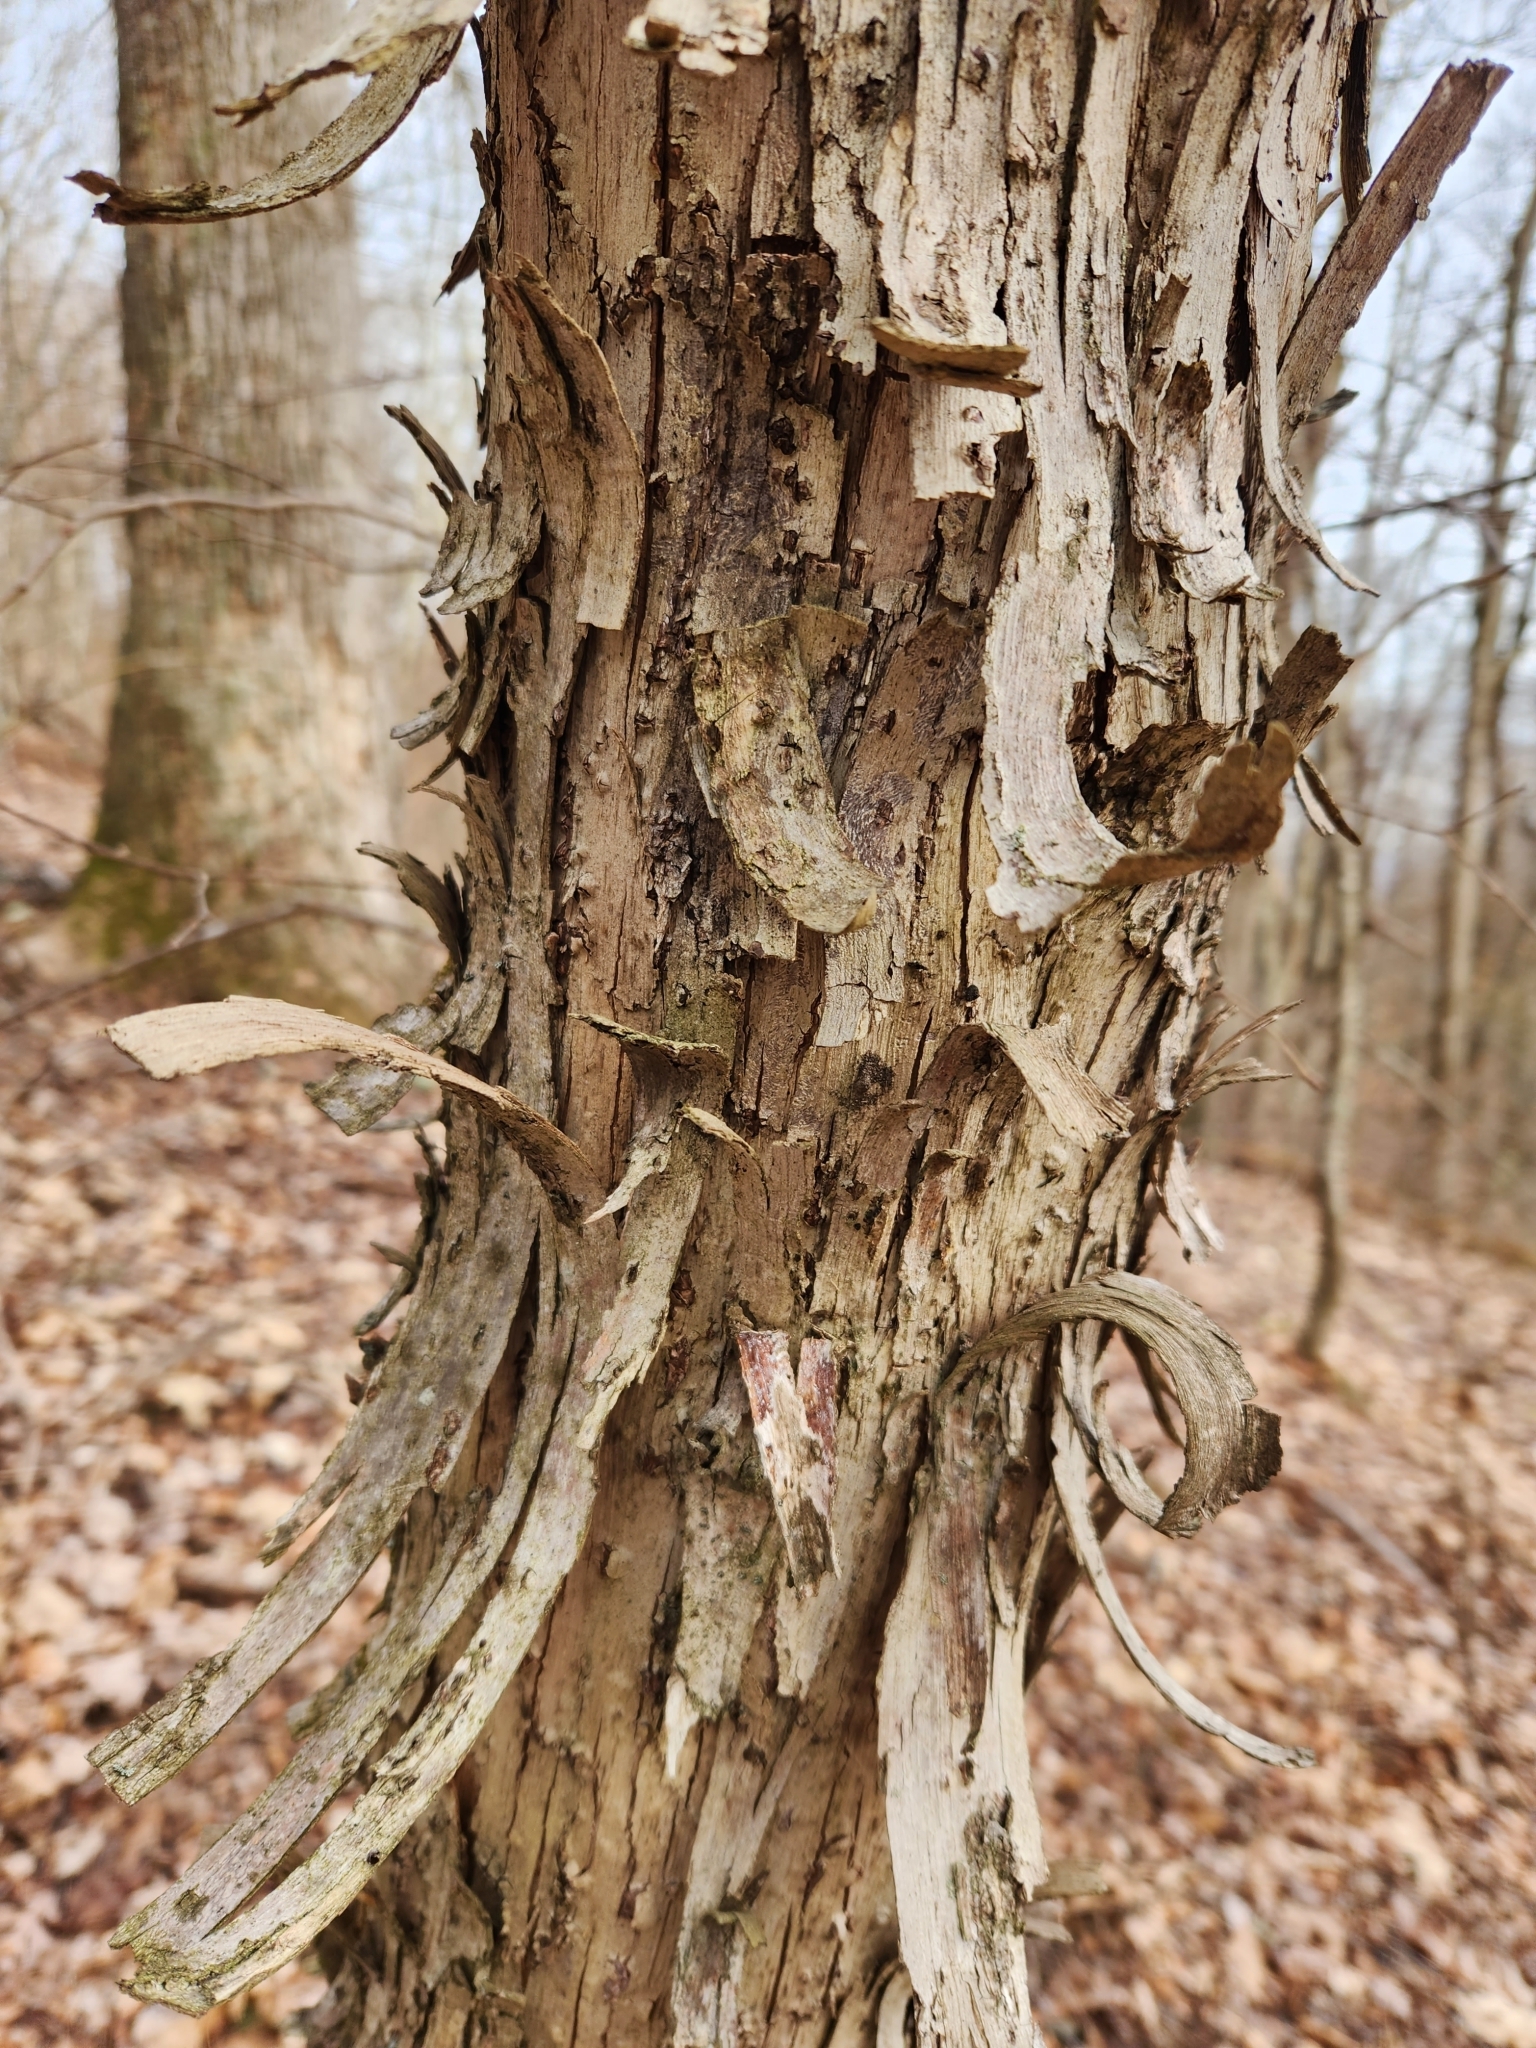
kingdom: Plantae
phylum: Tracheophyta
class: Magnoliopsida
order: Fagales
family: Betulaceae
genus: Ostrya
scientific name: Ostrya virginiana
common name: Ironwood
